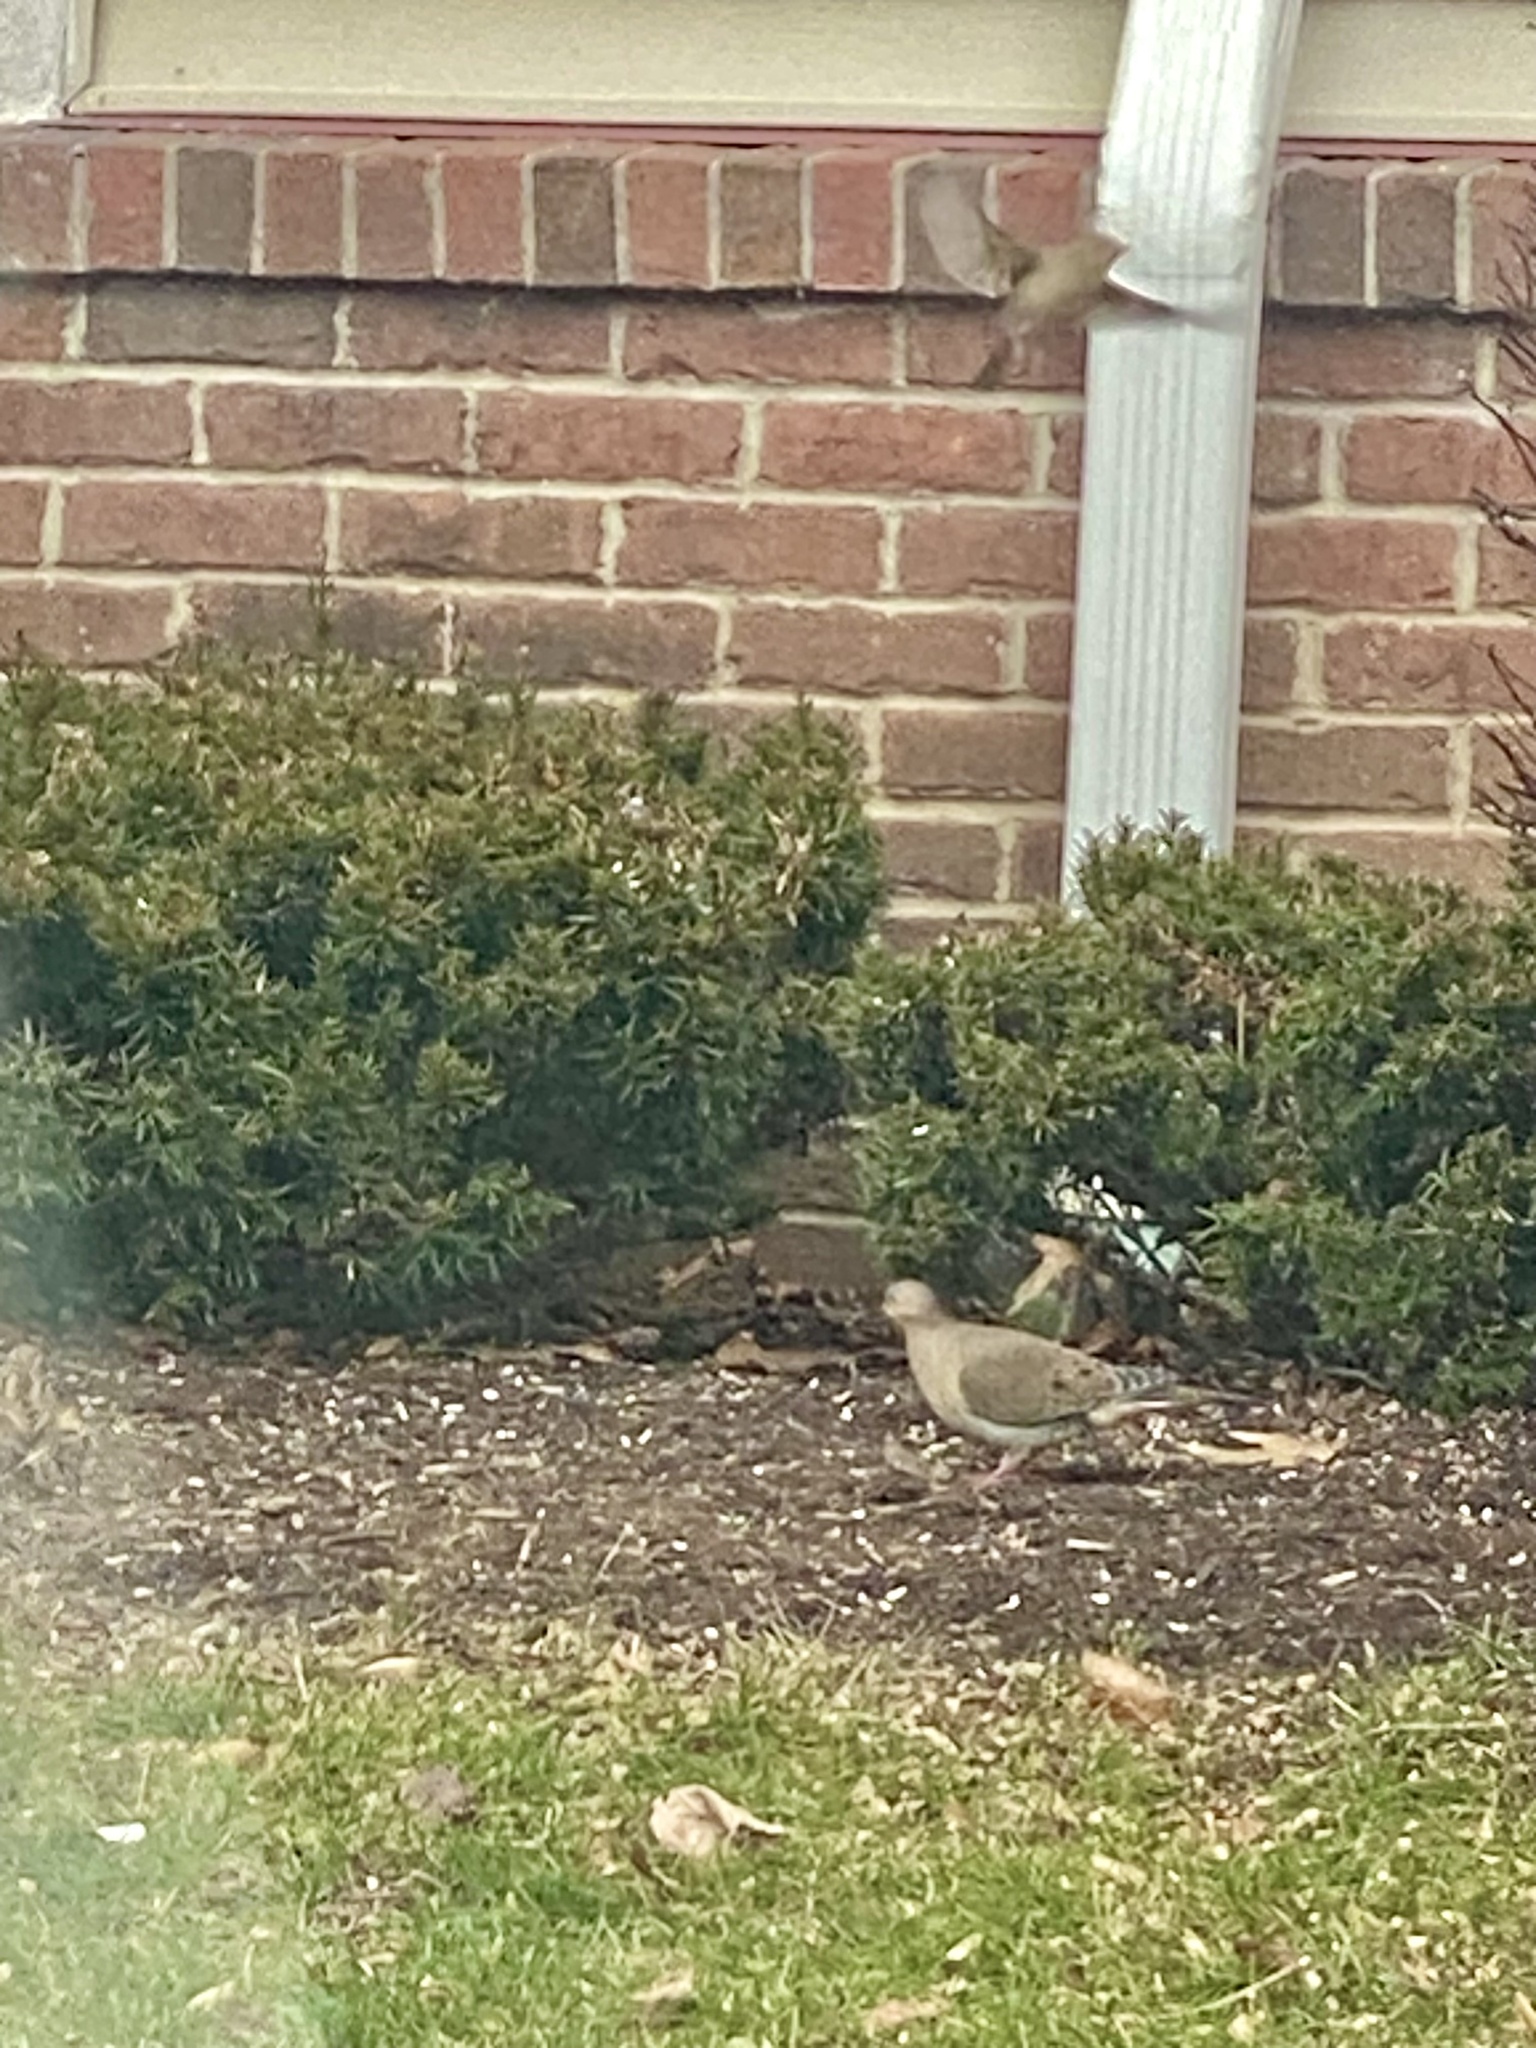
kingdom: Animalia
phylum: Chordata
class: Aves
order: Columbiformes
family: Columbidae
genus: Zenaida
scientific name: Zenaida macroura
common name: Mourning dove
